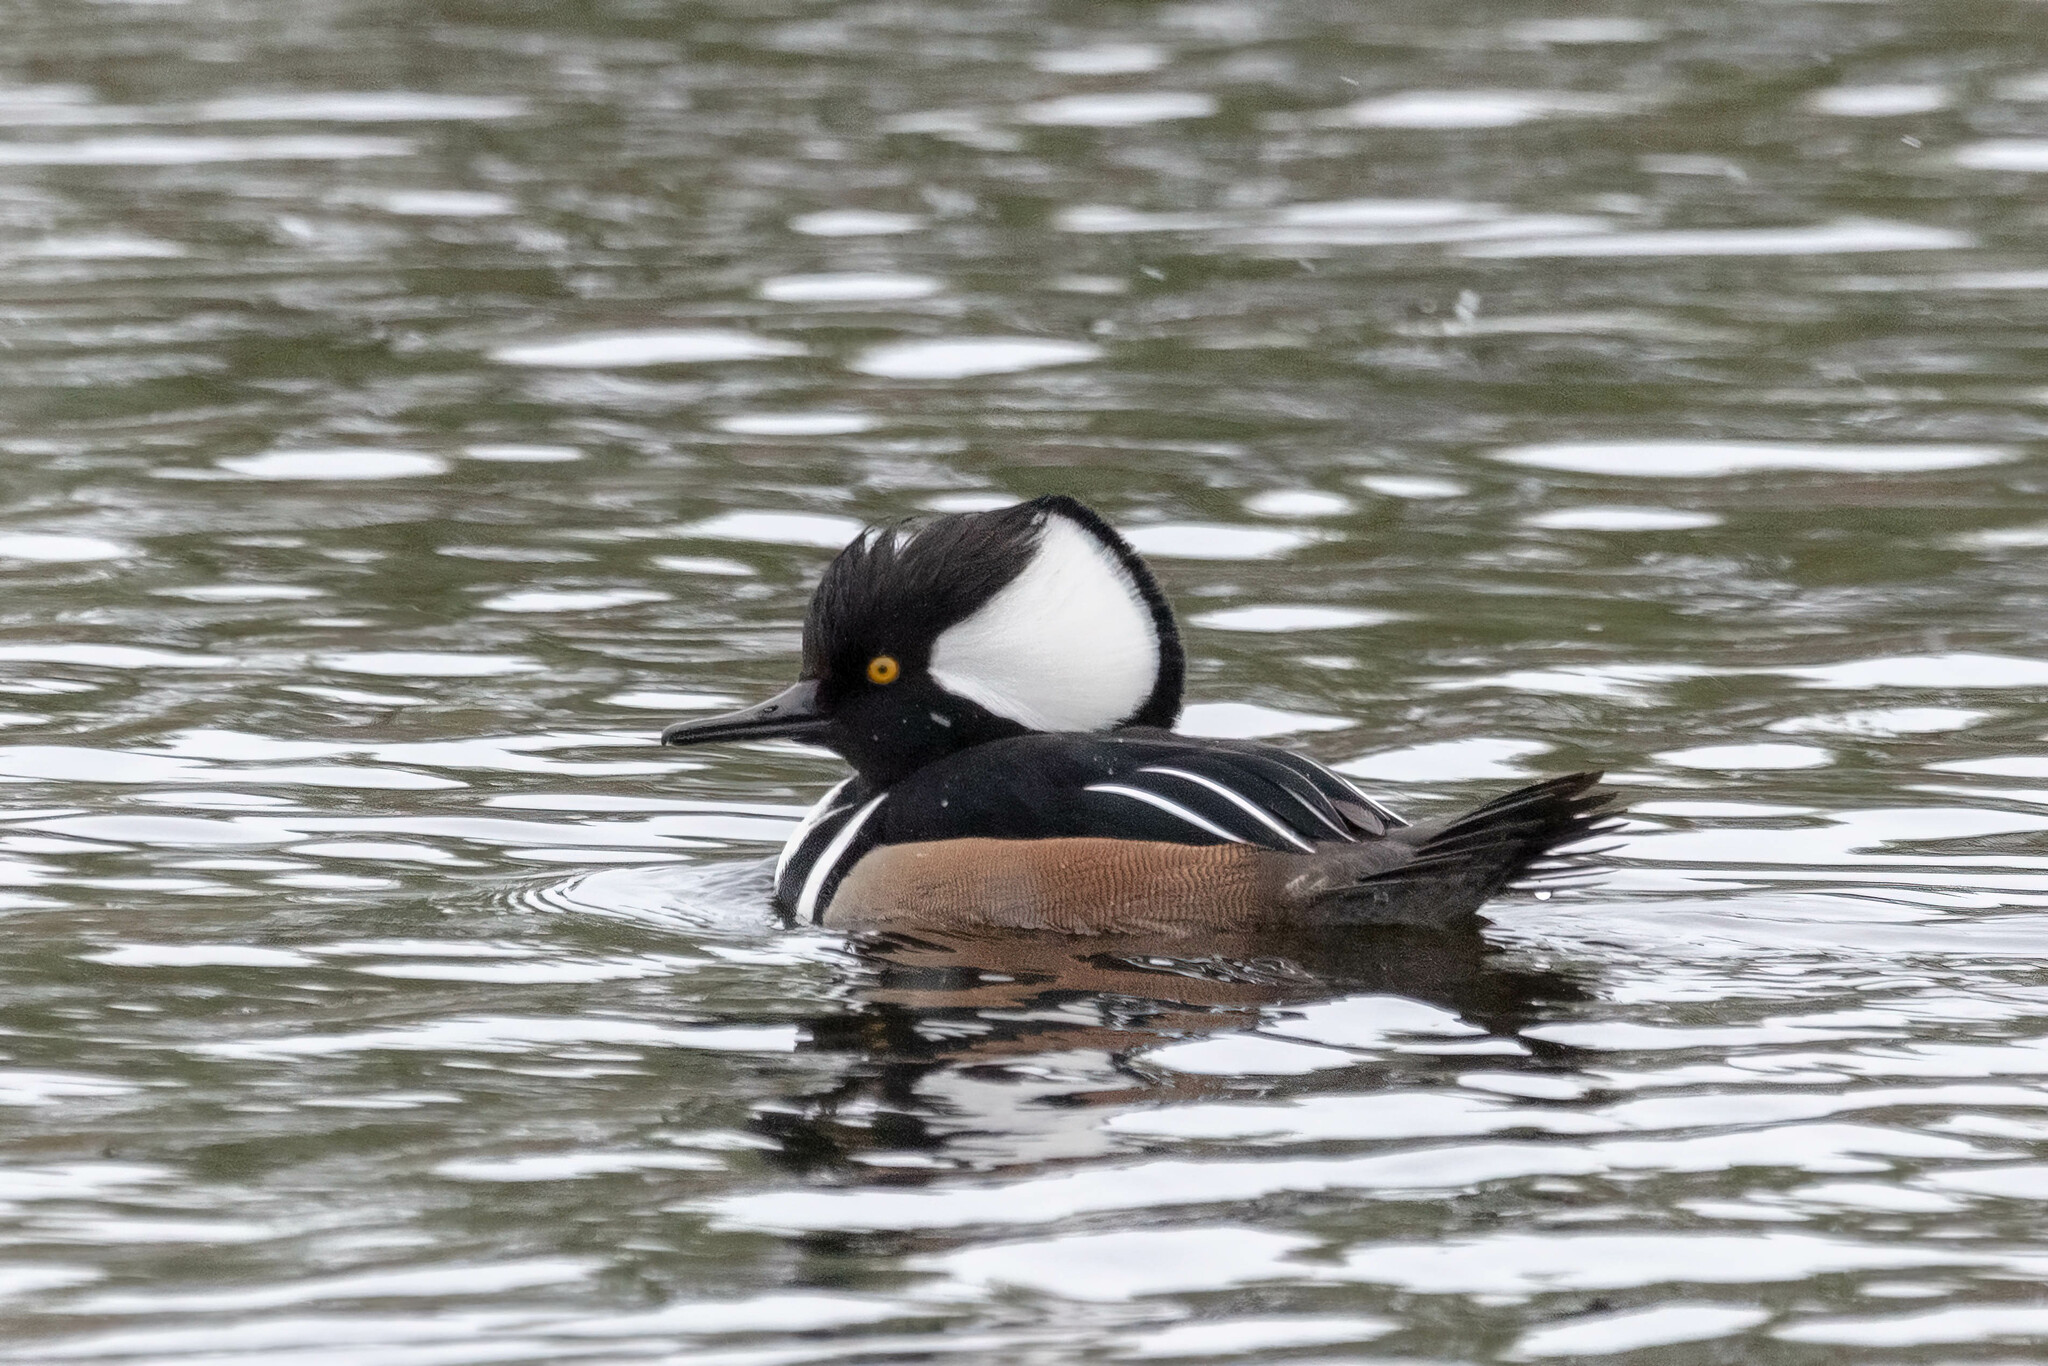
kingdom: Animalia
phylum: Chordata
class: Aves
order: Anseriformes
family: Anatidae
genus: Lophodytes
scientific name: Lophodytes cucullatus
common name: Hooded merganser
